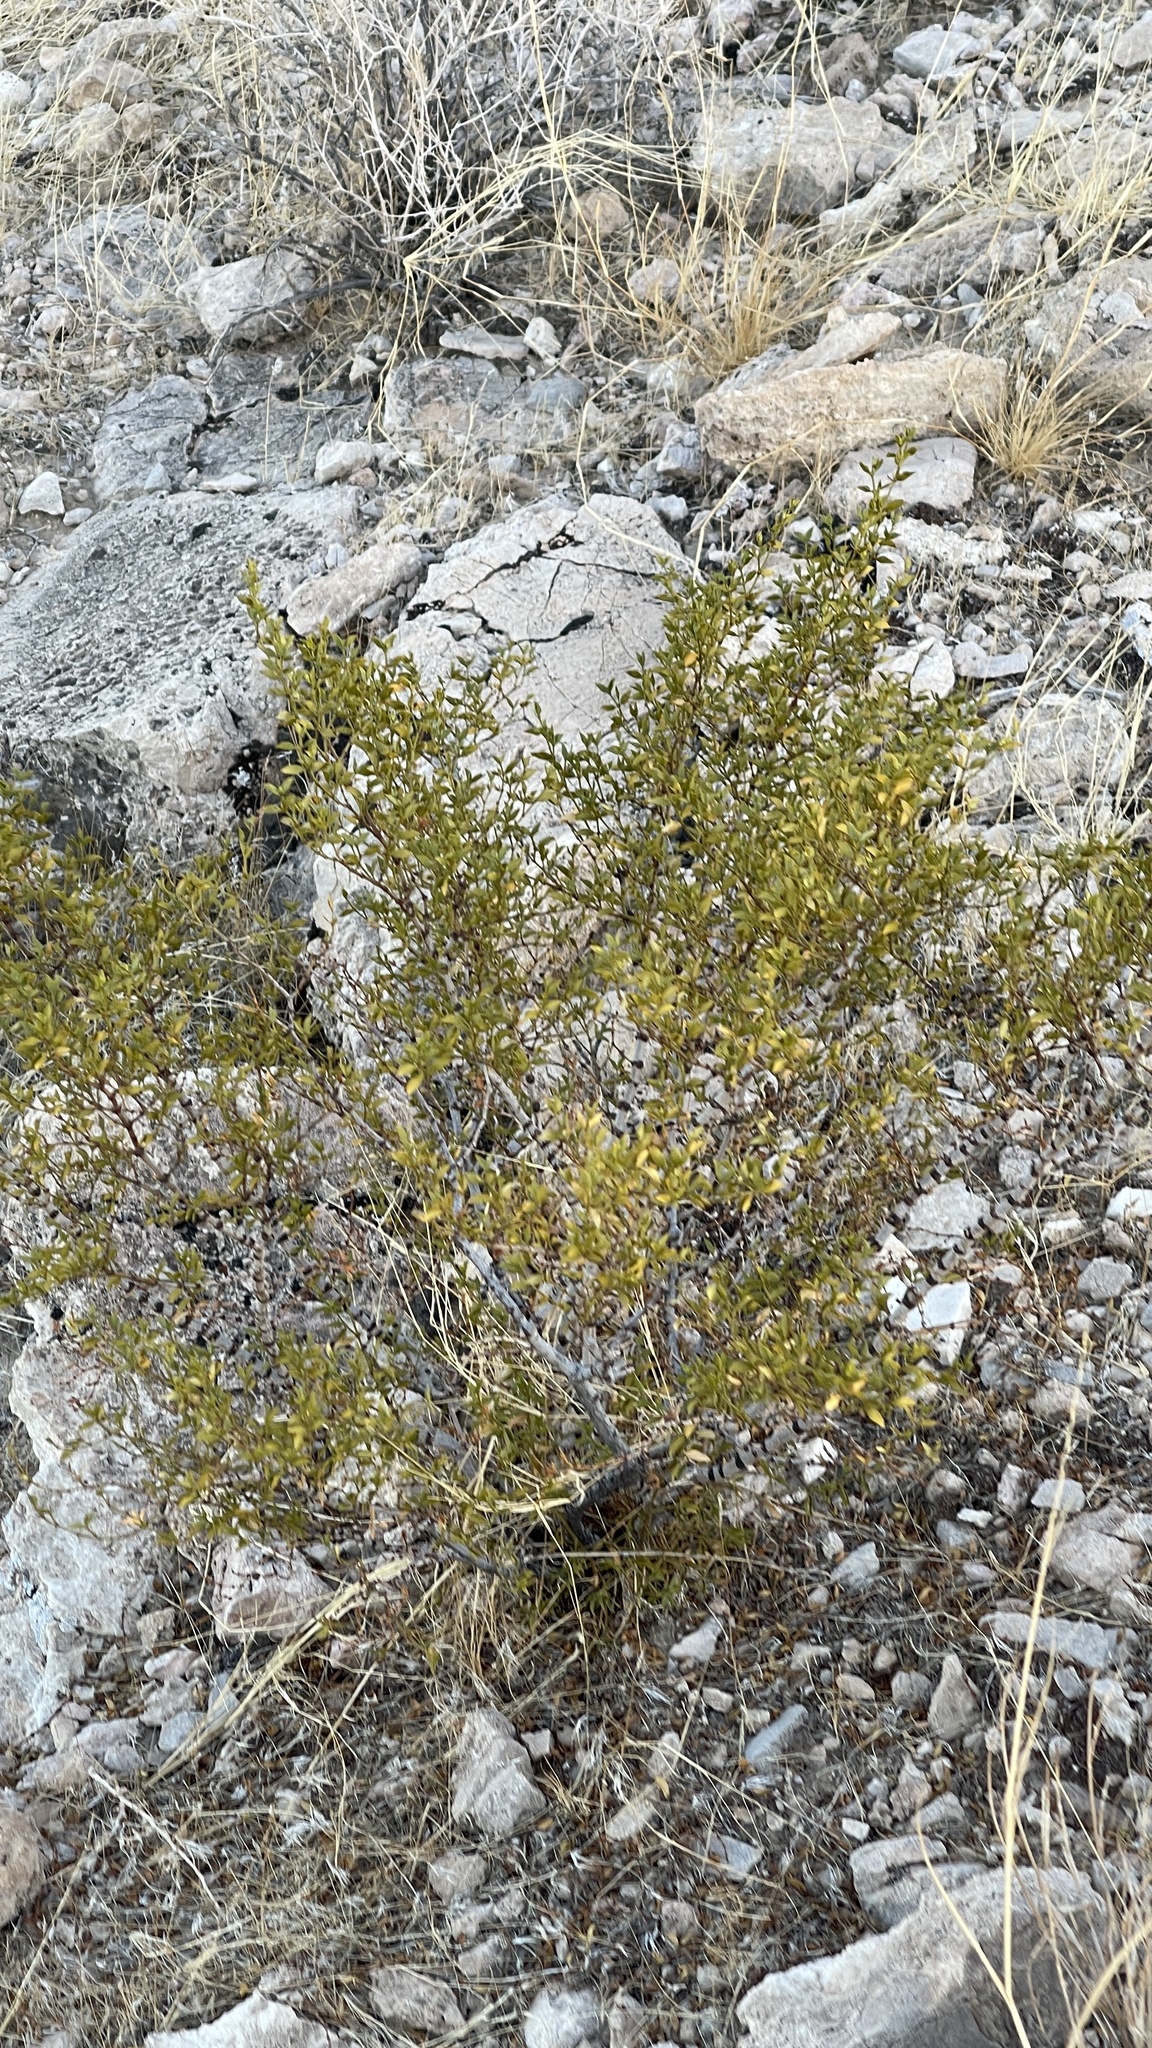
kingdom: Plantae
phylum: Tracheophyta
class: Magnoliopsida
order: Zygophyllales
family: Zygophyllaceae
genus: Larrea
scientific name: Larrea tridentata
